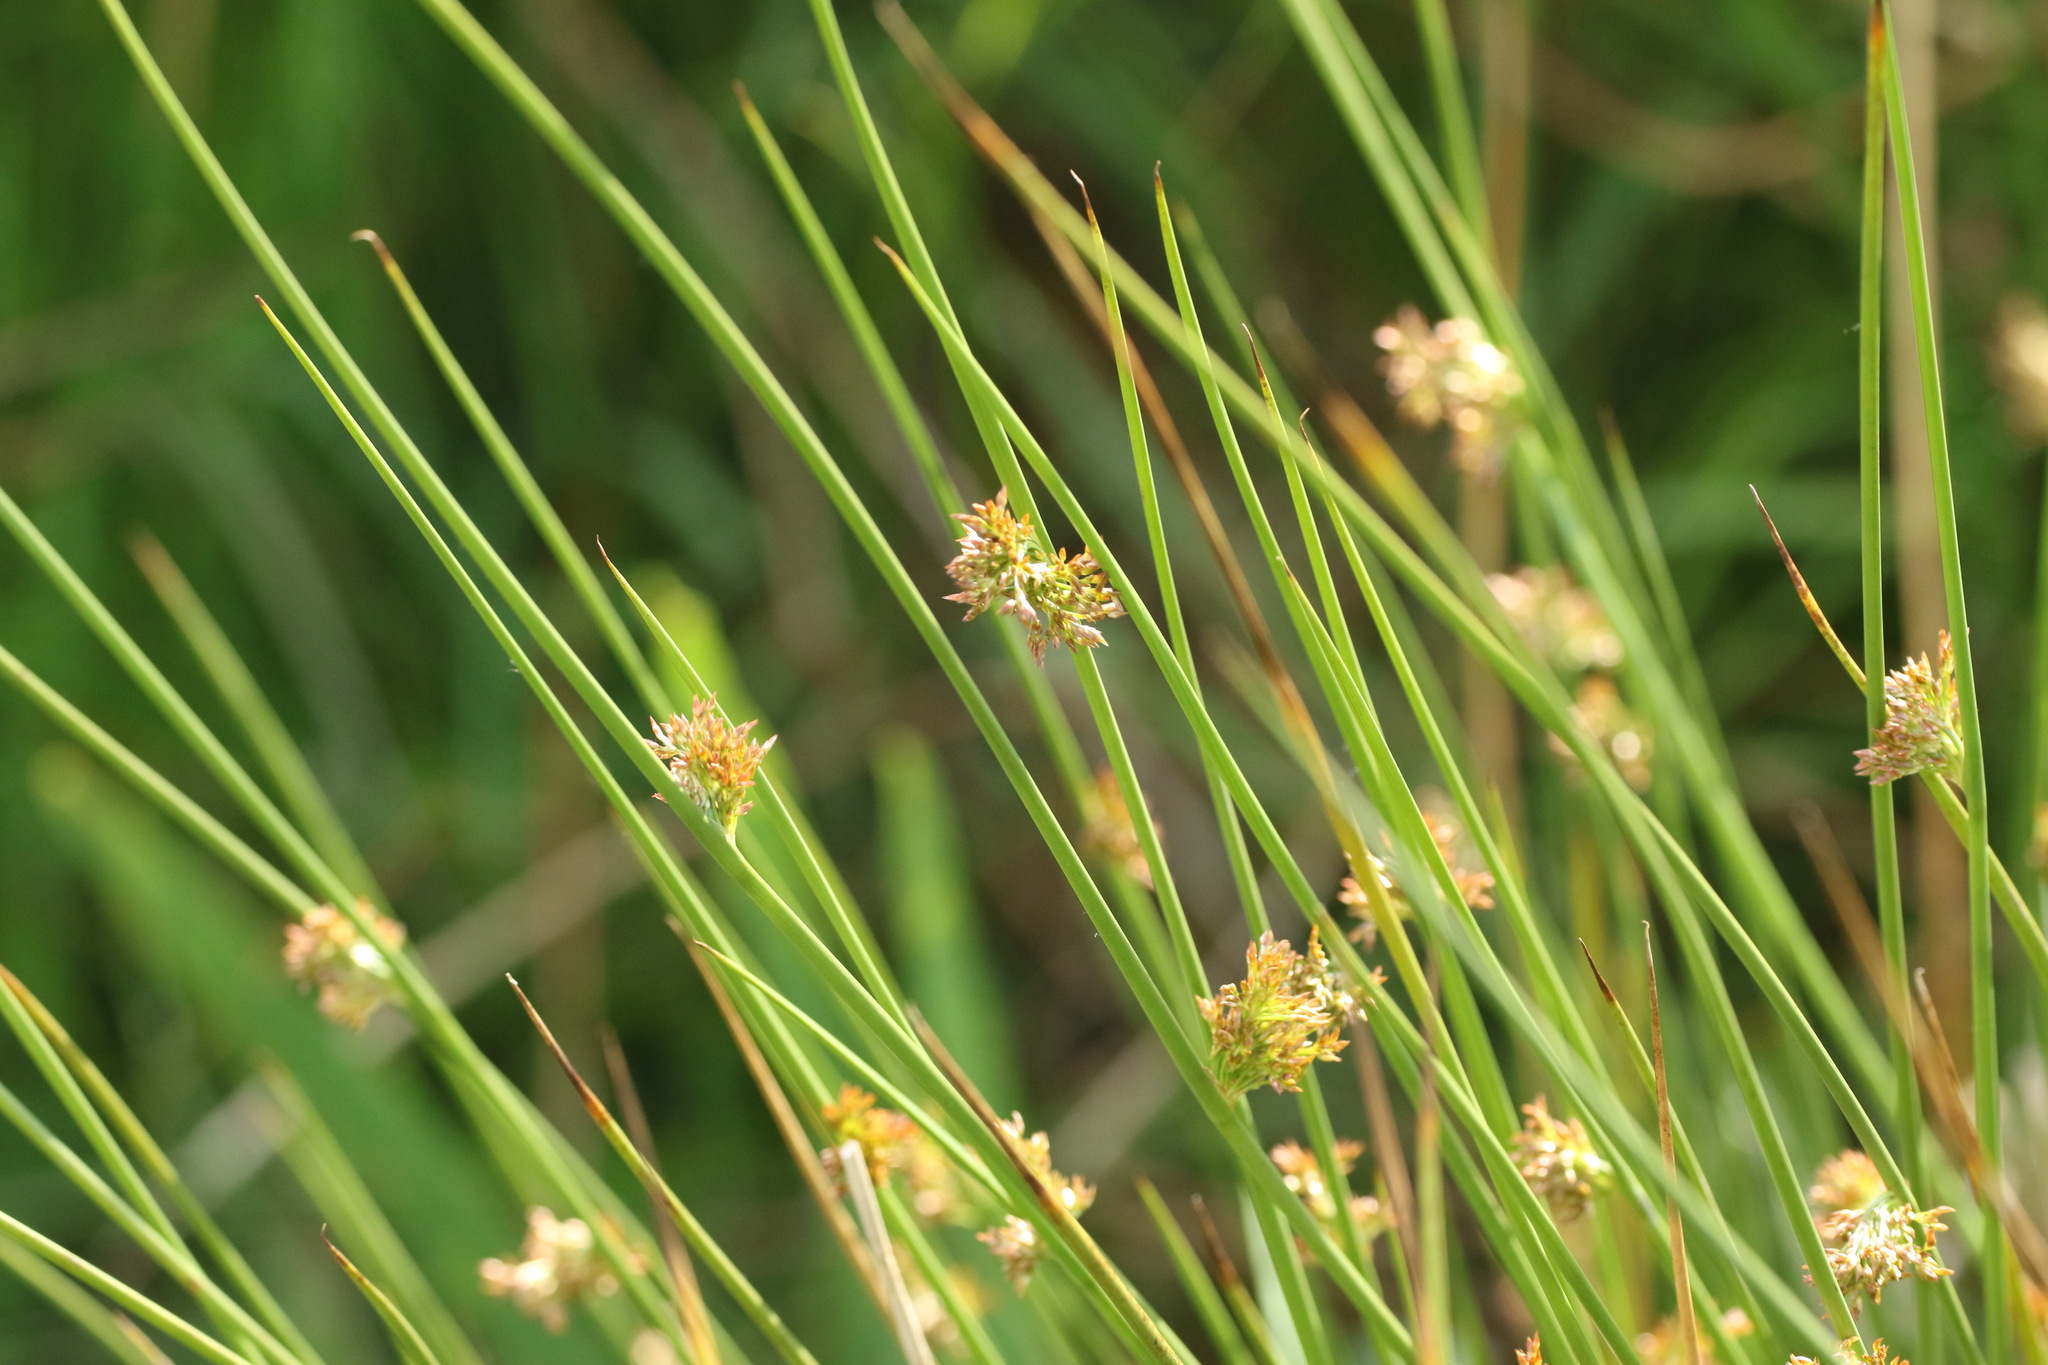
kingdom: Plantae
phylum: Tracheophyta
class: Liliopsida
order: Poales
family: Juncaceae
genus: Juncus
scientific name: Juncus effusus
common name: Soft rush
